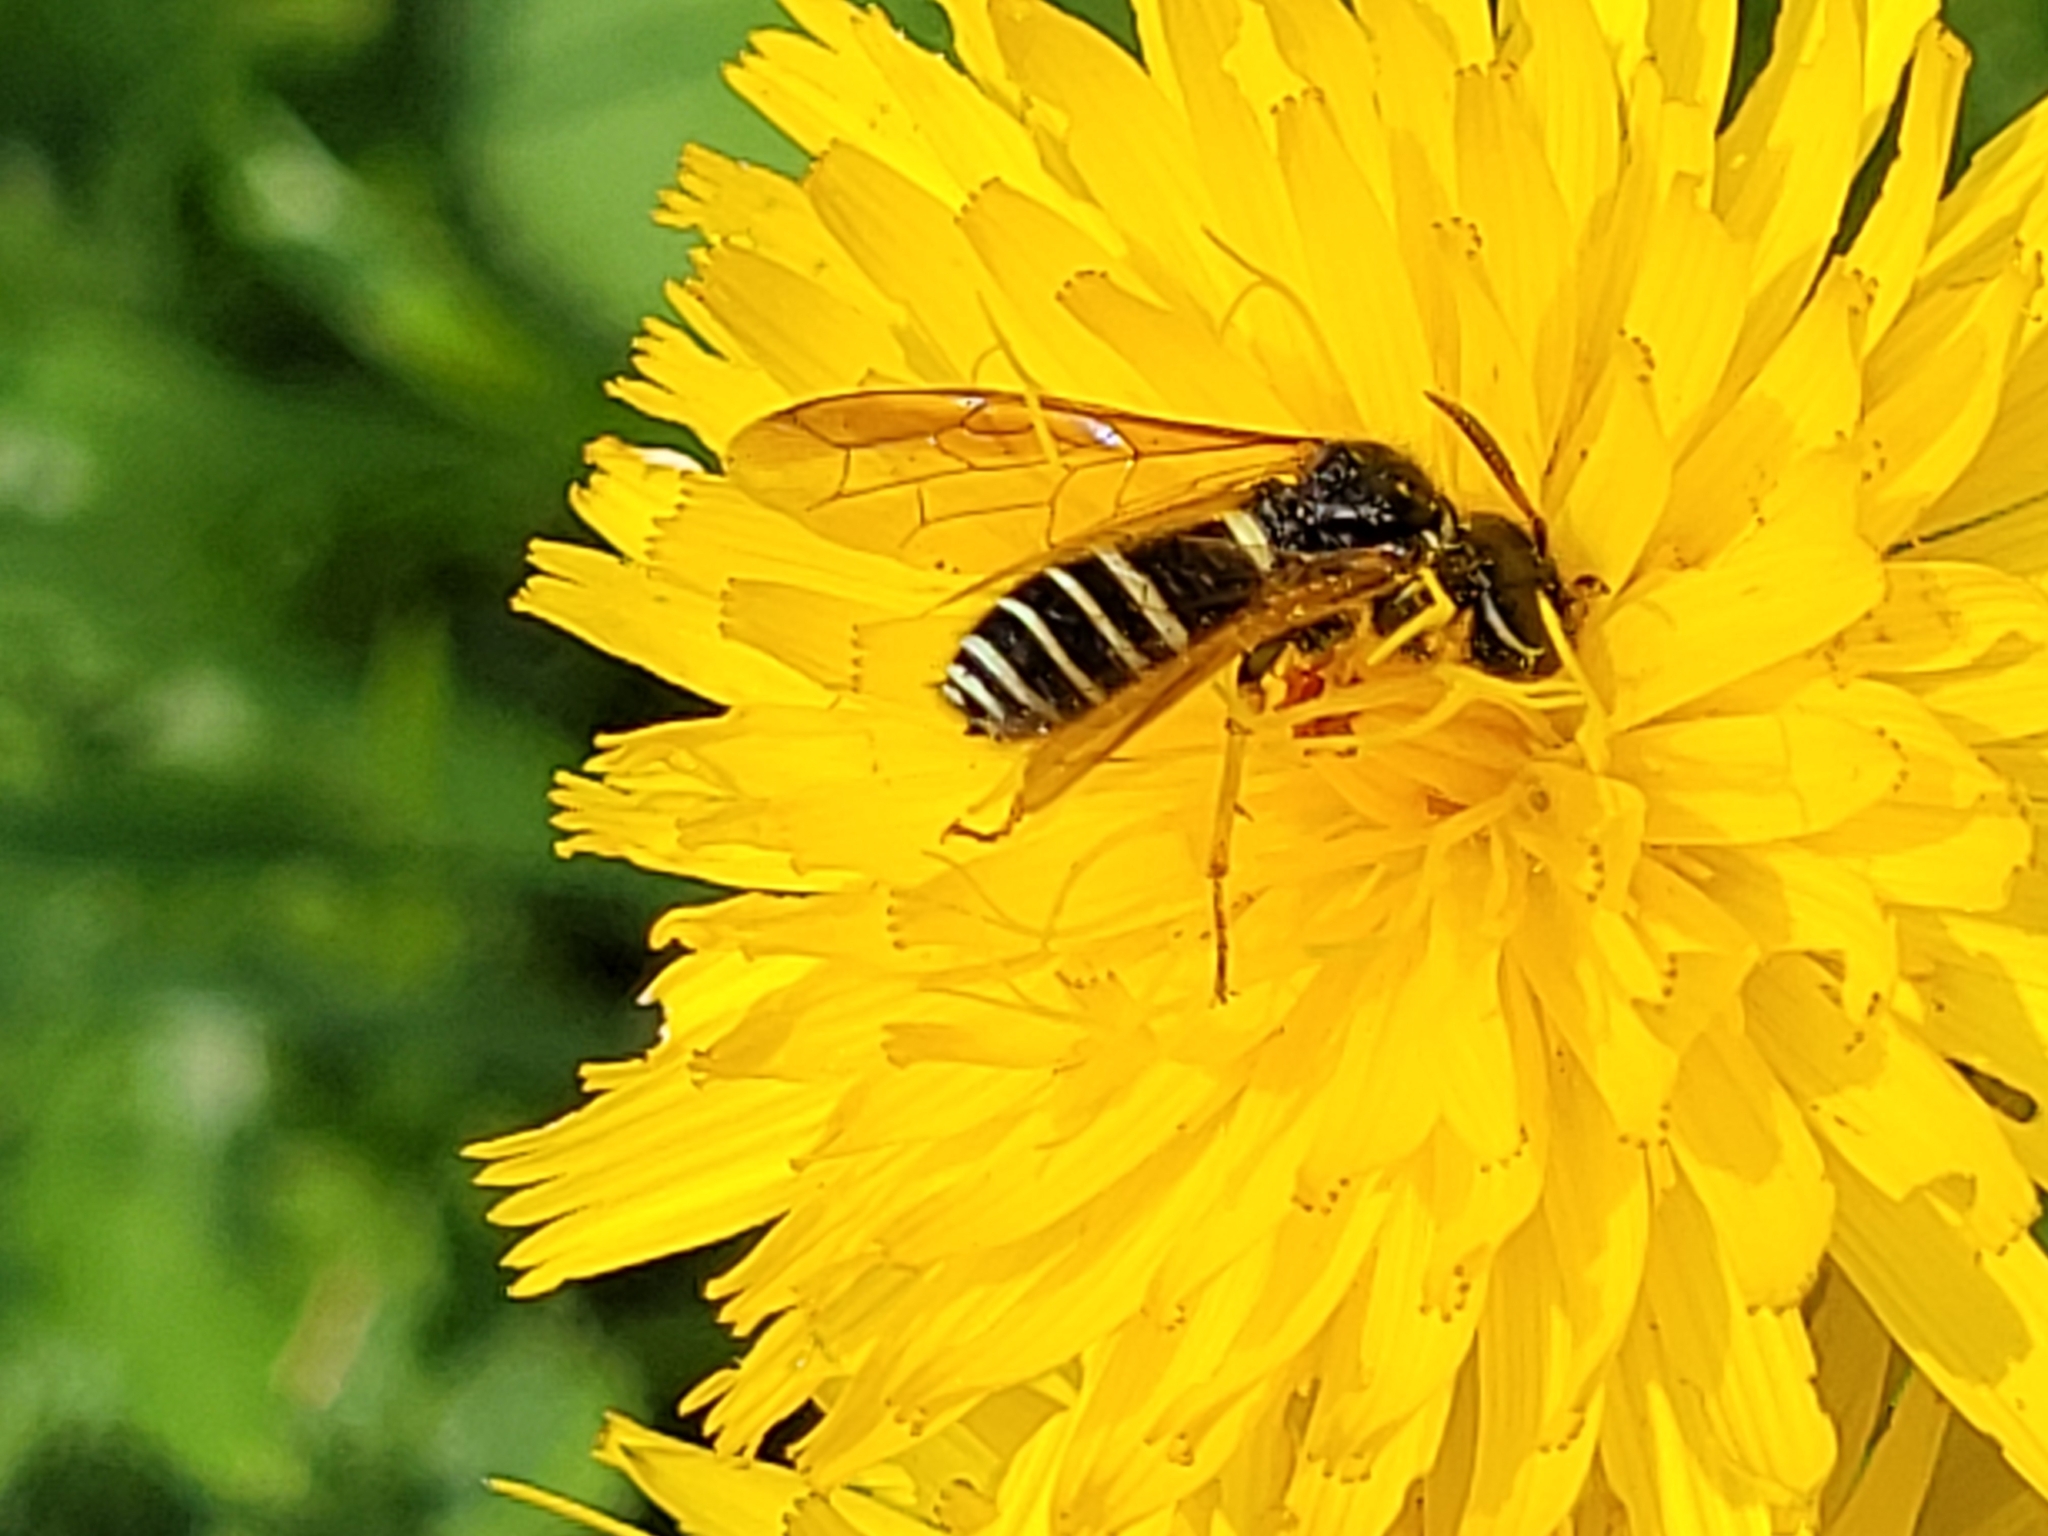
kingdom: Animalia
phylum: Arthropoda
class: Insecta
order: Hymenoptera
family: Megalodontesidae
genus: Megalodontes
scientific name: Megalodontes cephalotes
